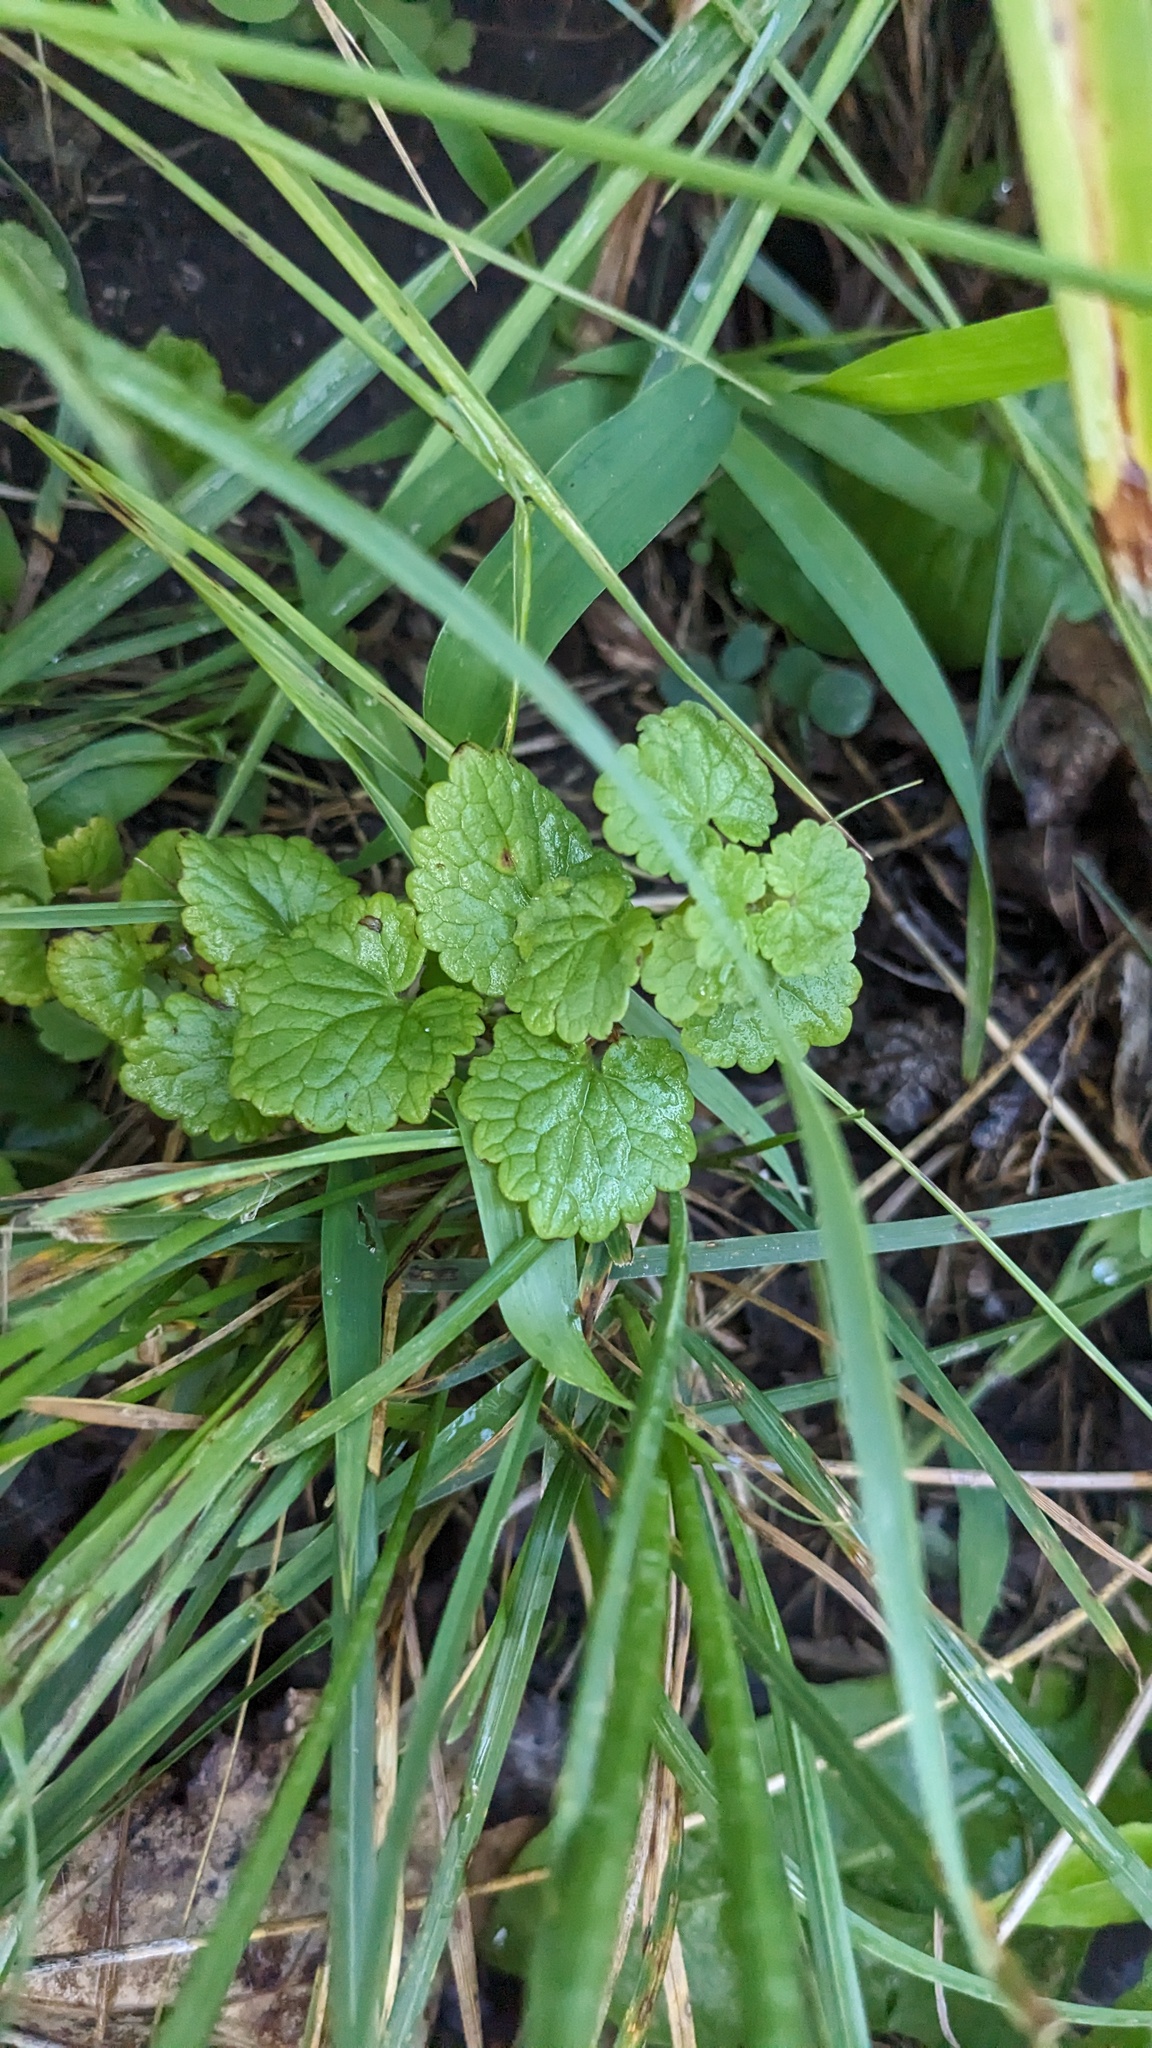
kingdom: Plantae
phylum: Tracheophyta
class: Magnoliopsida
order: Lamiales
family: Lamiaceae
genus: Glechoma
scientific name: Glechoma hederacea
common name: Ground ivy
